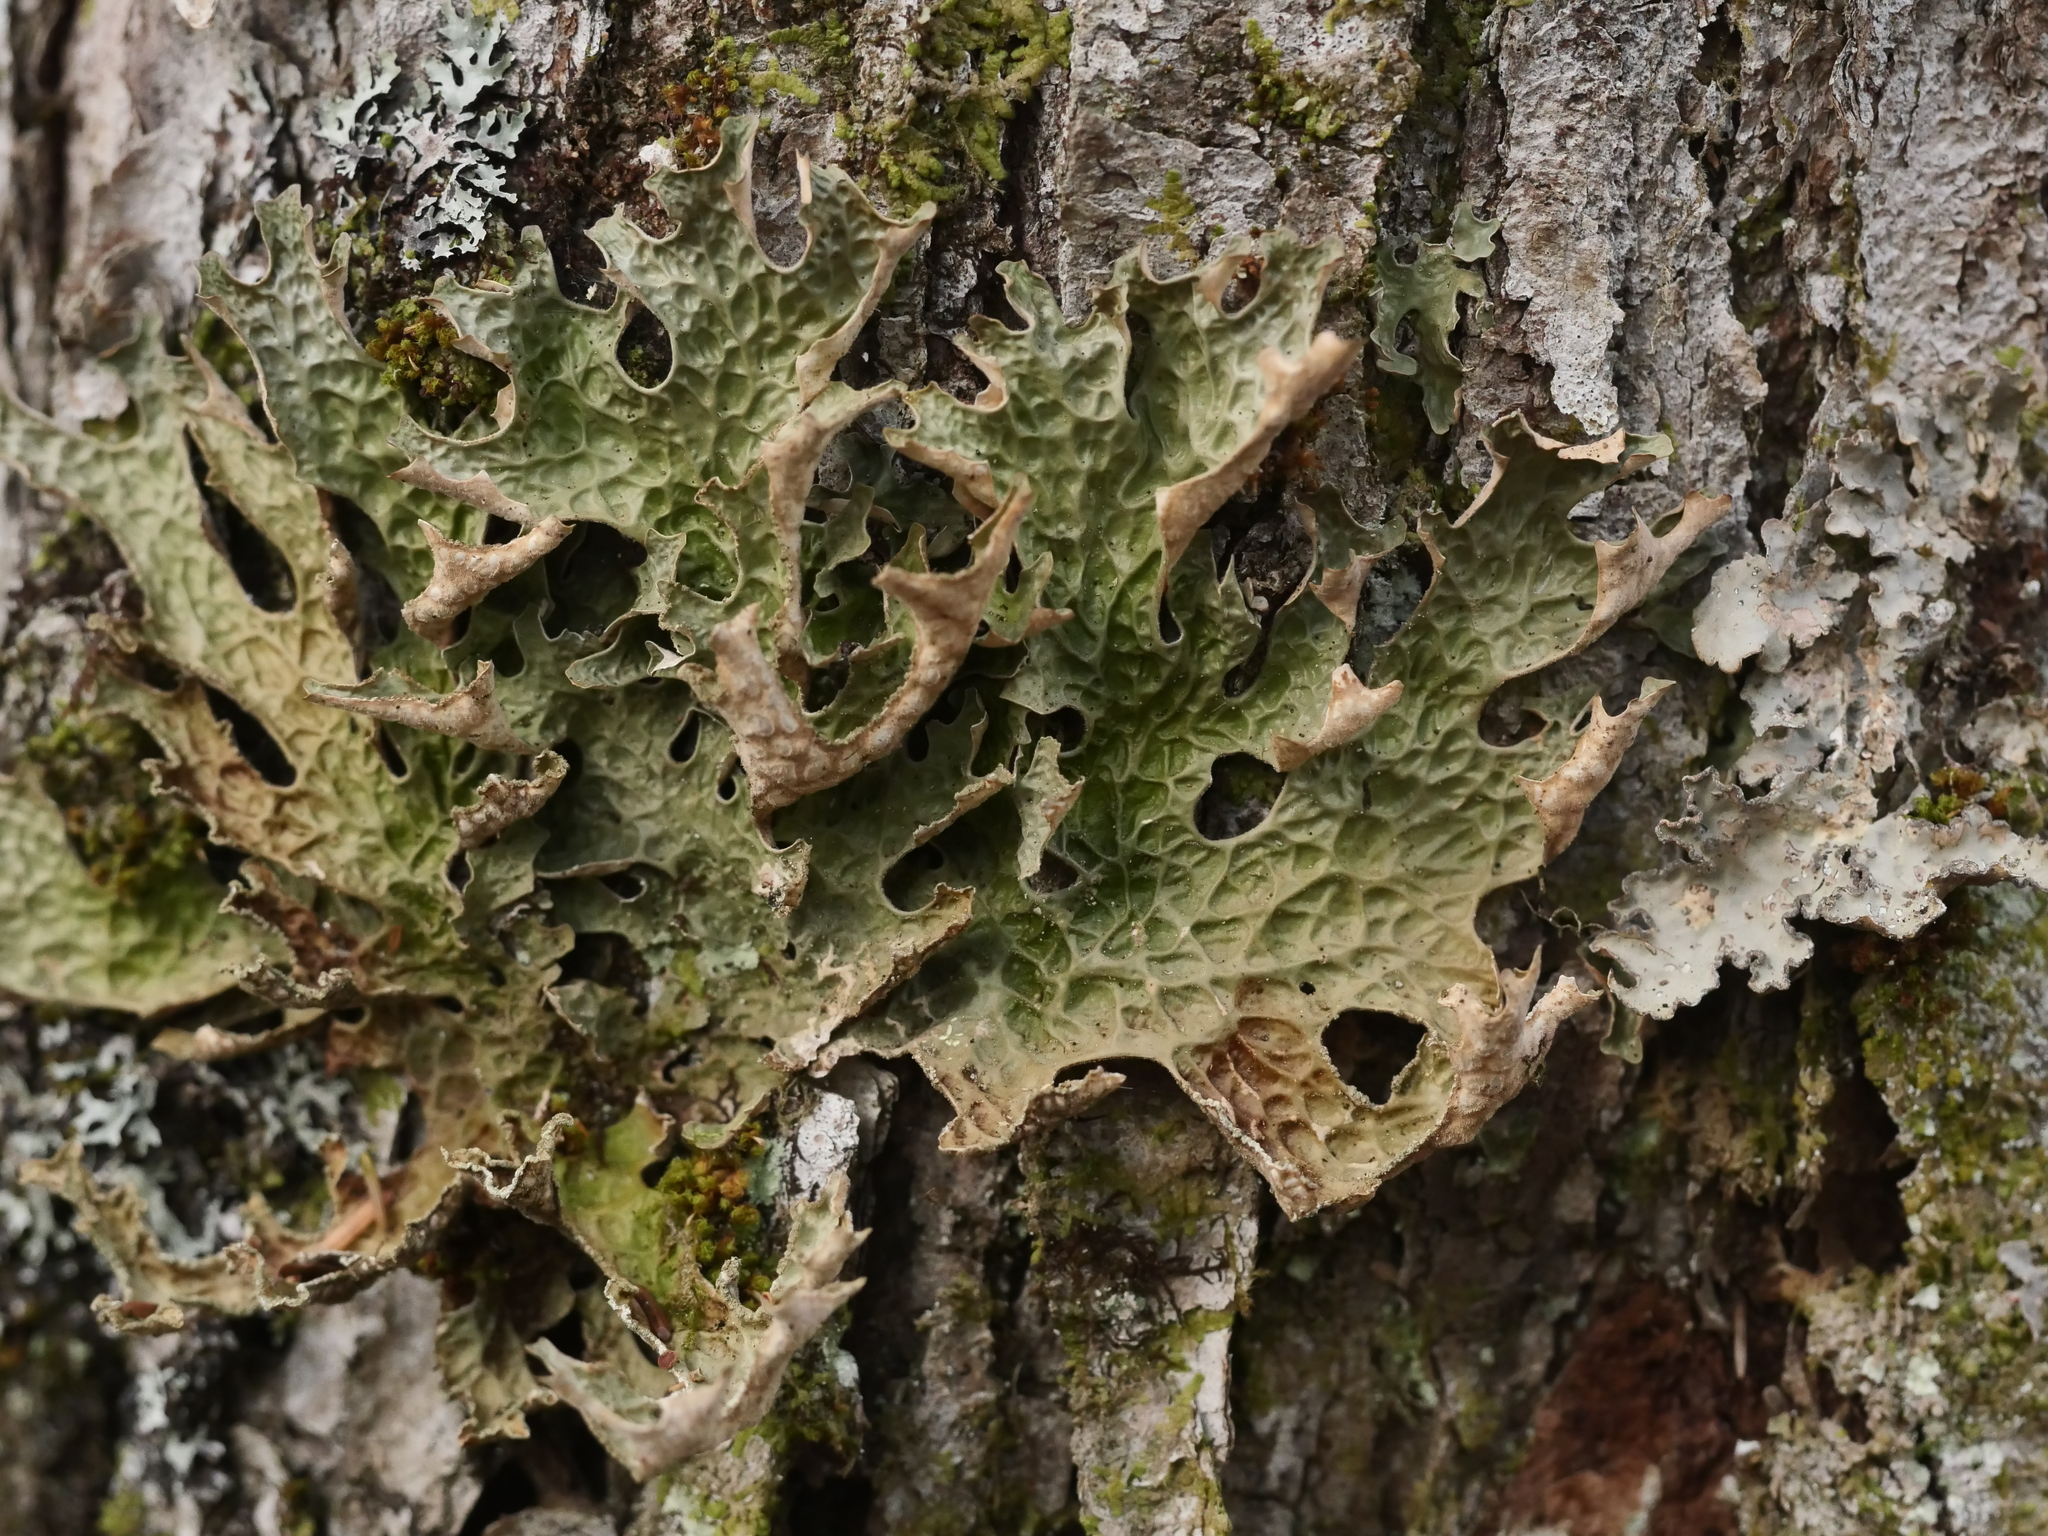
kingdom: Fungi
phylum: Ascomycota
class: Lecanoromycetes
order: Peltigerales
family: Lobariaceae
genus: Lobaria
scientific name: Lobaria pulmonaria
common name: Lungwort
